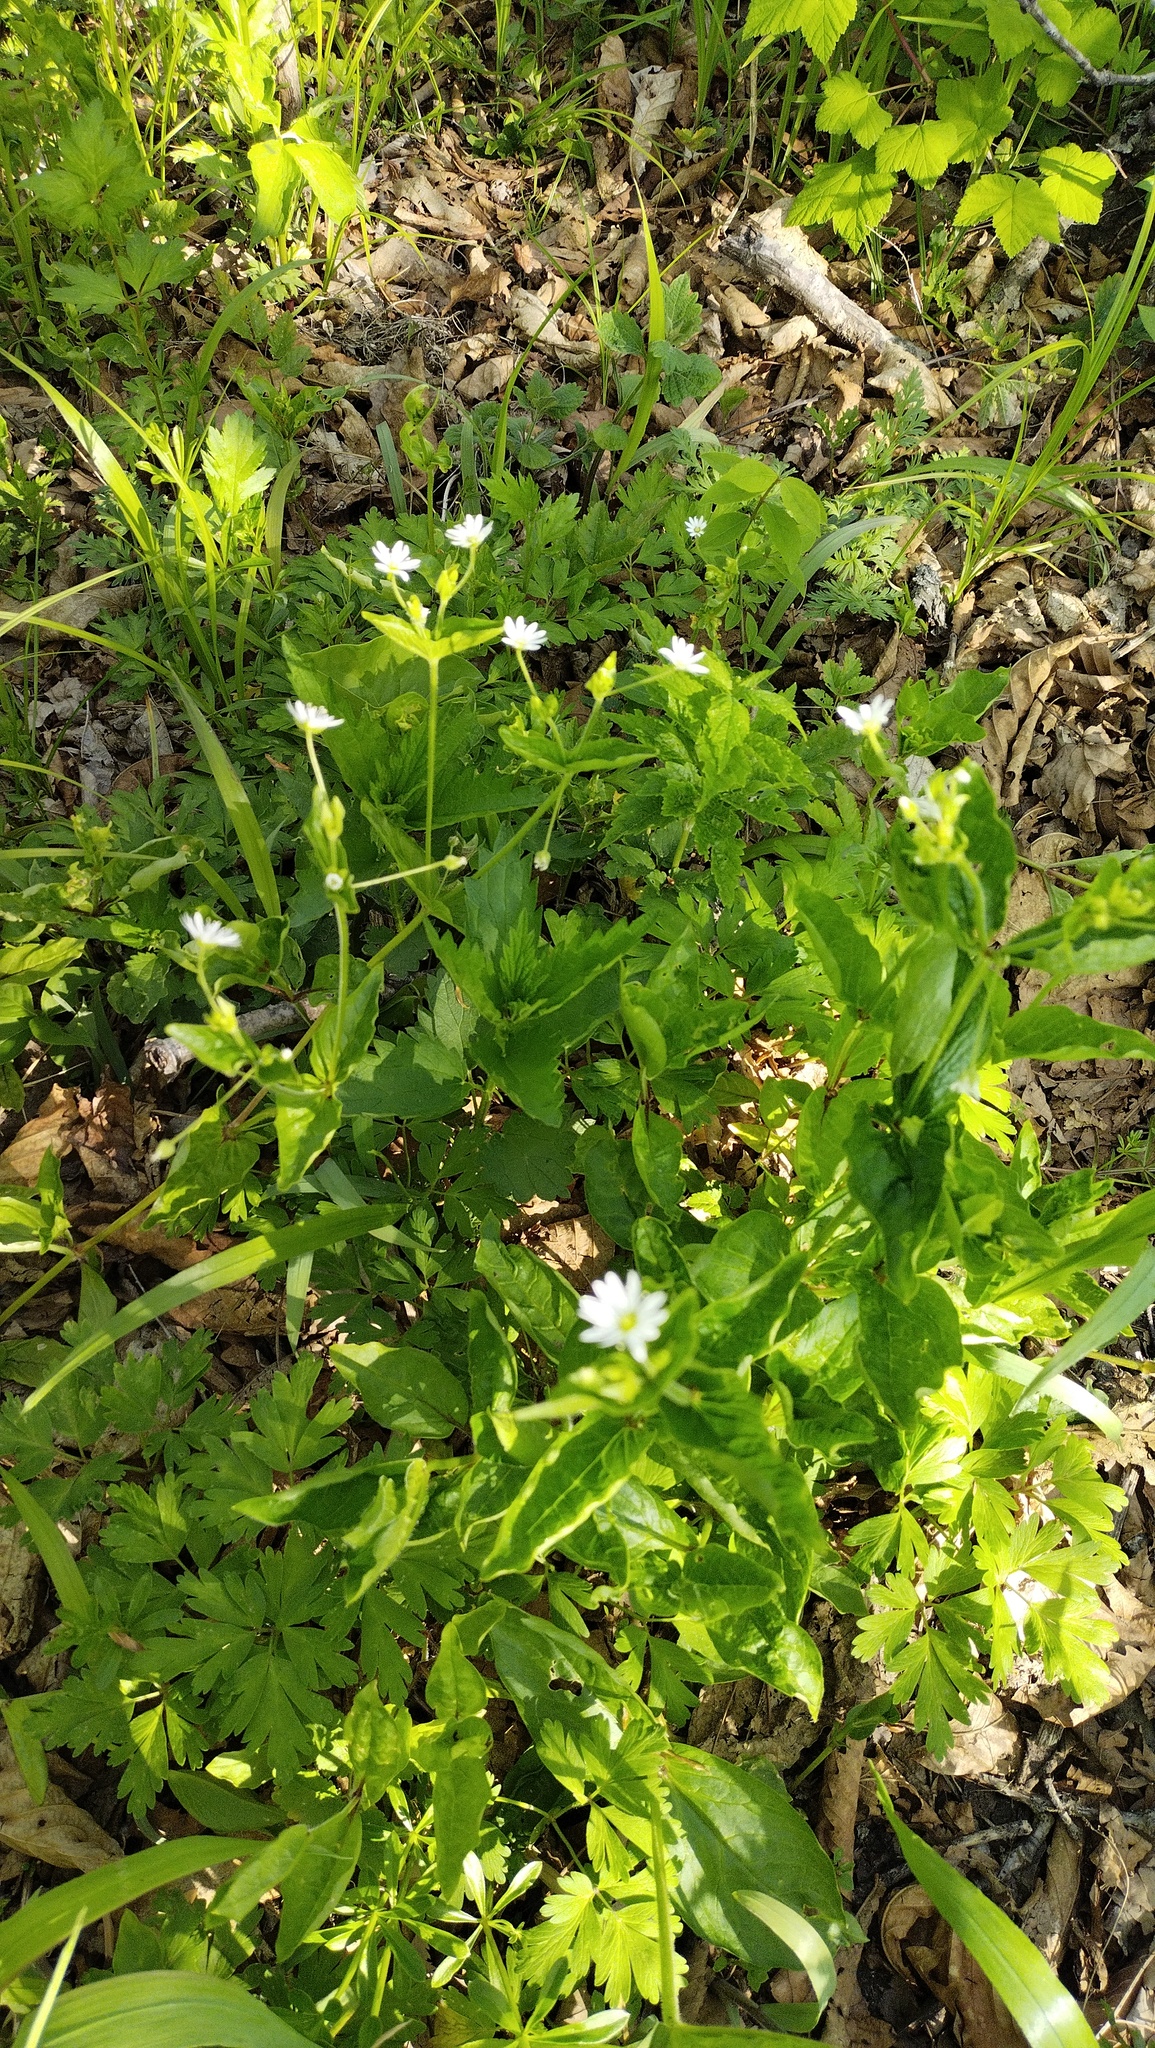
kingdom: Plantae
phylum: Tracheophyta
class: Magnoliopsida
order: Caryophyllales
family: Caryophyllaceae
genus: Stellaria
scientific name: Stellaria bungeana
